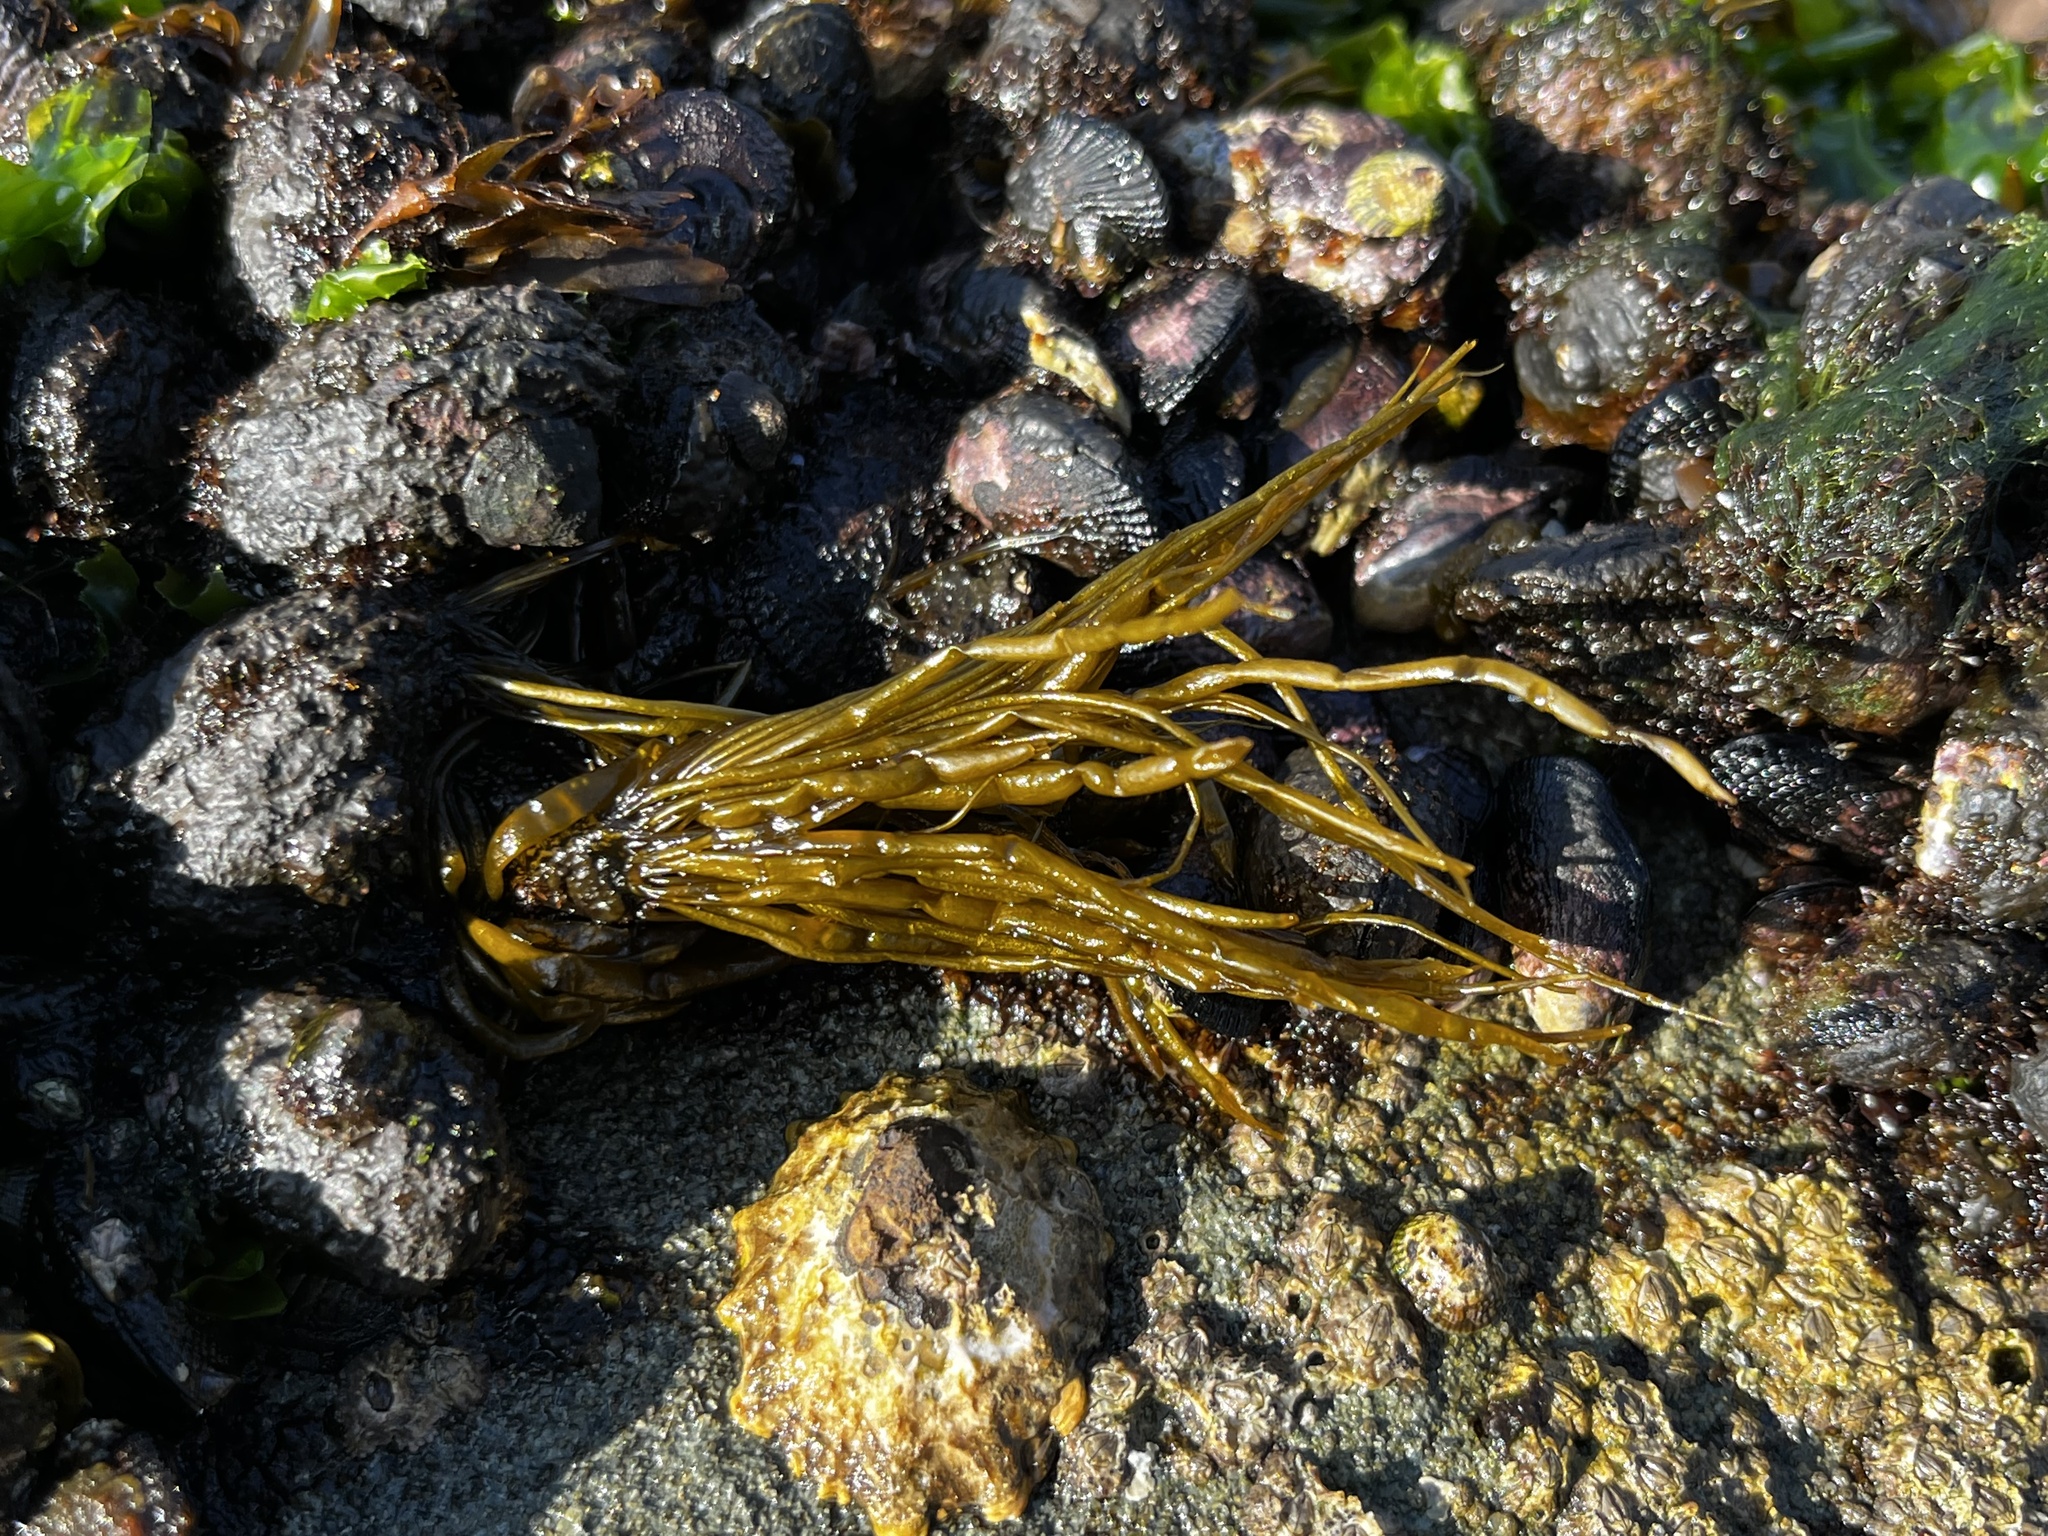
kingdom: Chromista
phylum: Ochrophyta
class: Phaeophyceae
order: Scytosiphonales
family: Scytosiphonaceae
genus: Scytosiphon
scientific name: Scytosiphon lomentaria
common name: Beanweed
